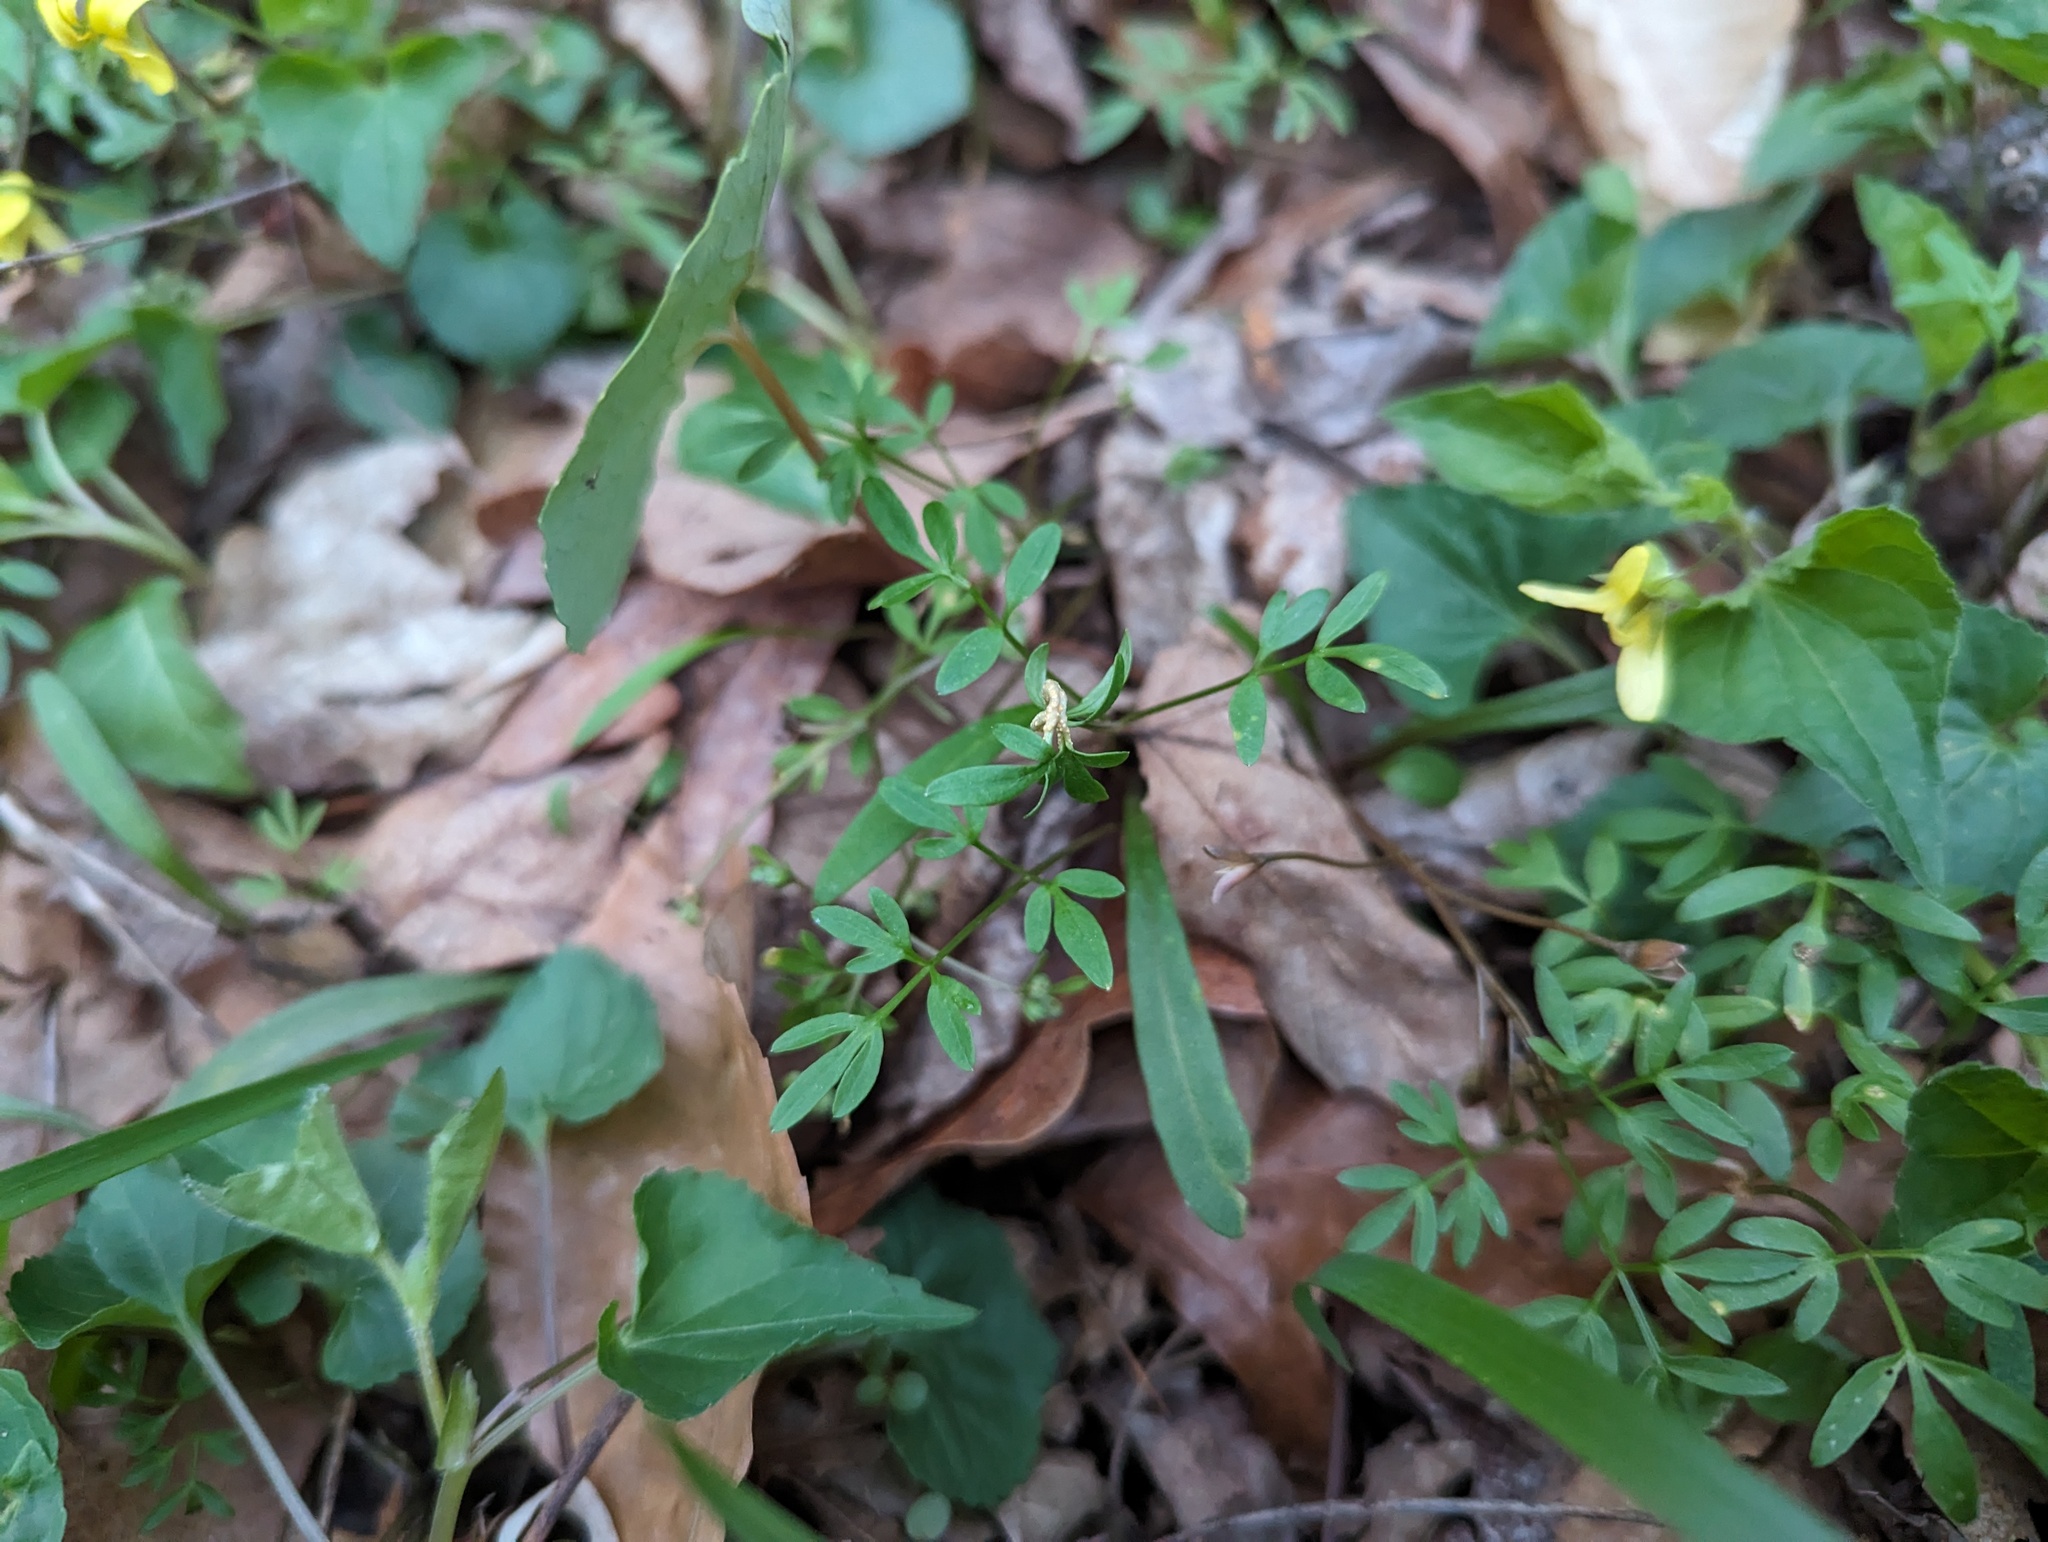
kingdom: Fungi
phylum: Basidiomycota
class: Pucciniomycetes
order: Pucciniales
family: Pucciniaceae
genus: Puccinia
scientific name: Puccinia erigeniae
